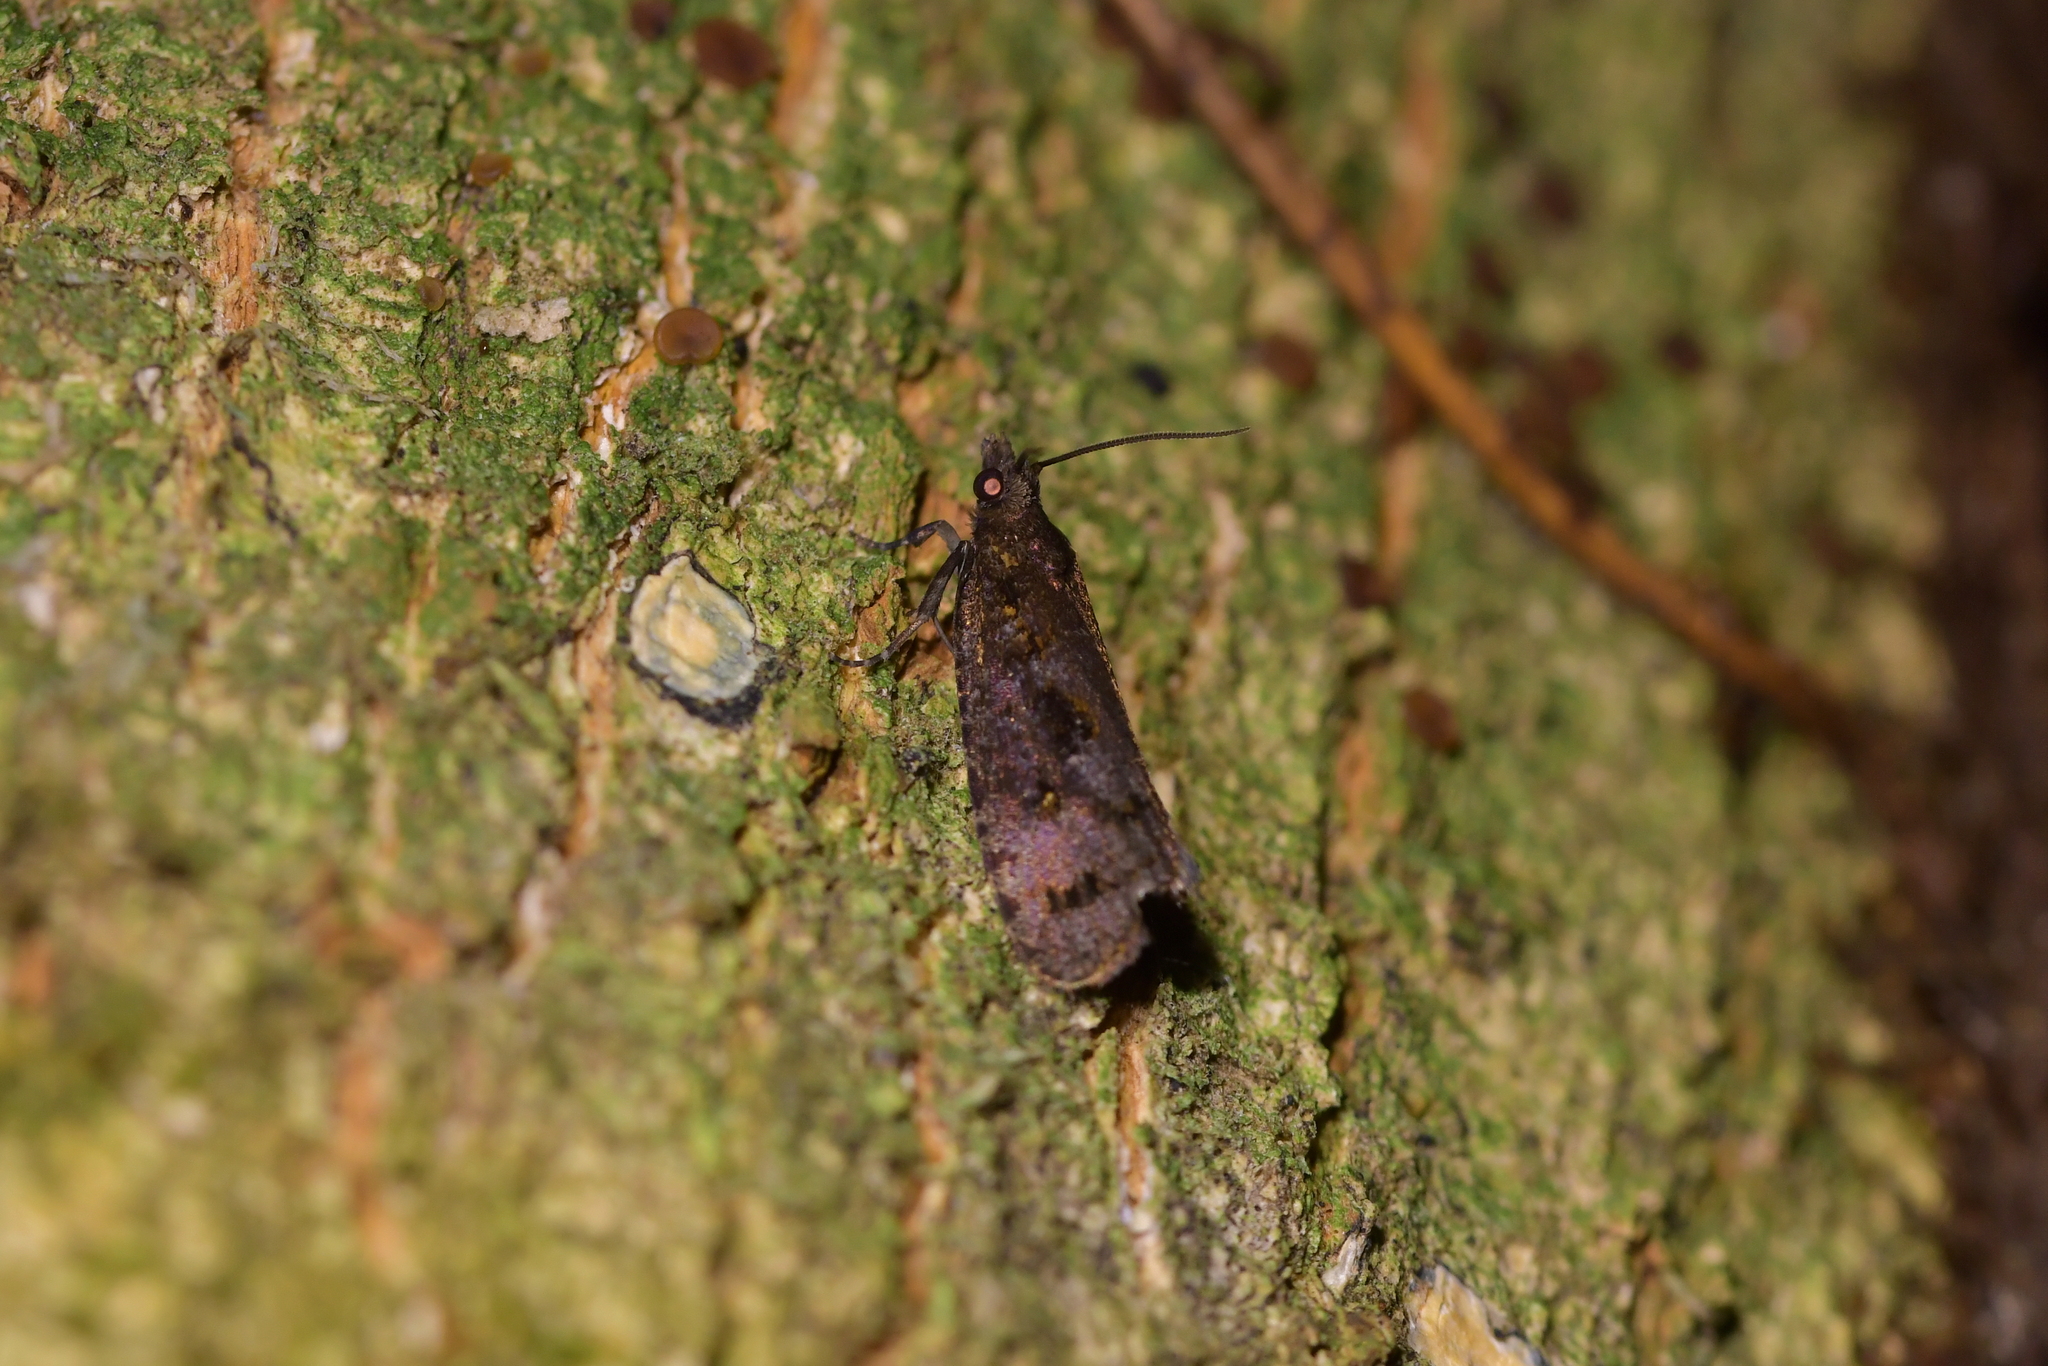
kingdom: Animalia
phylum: Arthropoda
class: Insecta
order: Lepidoptera
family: Tortricidae
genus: Cryptaspasma
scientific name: Cryptaspasma querula
